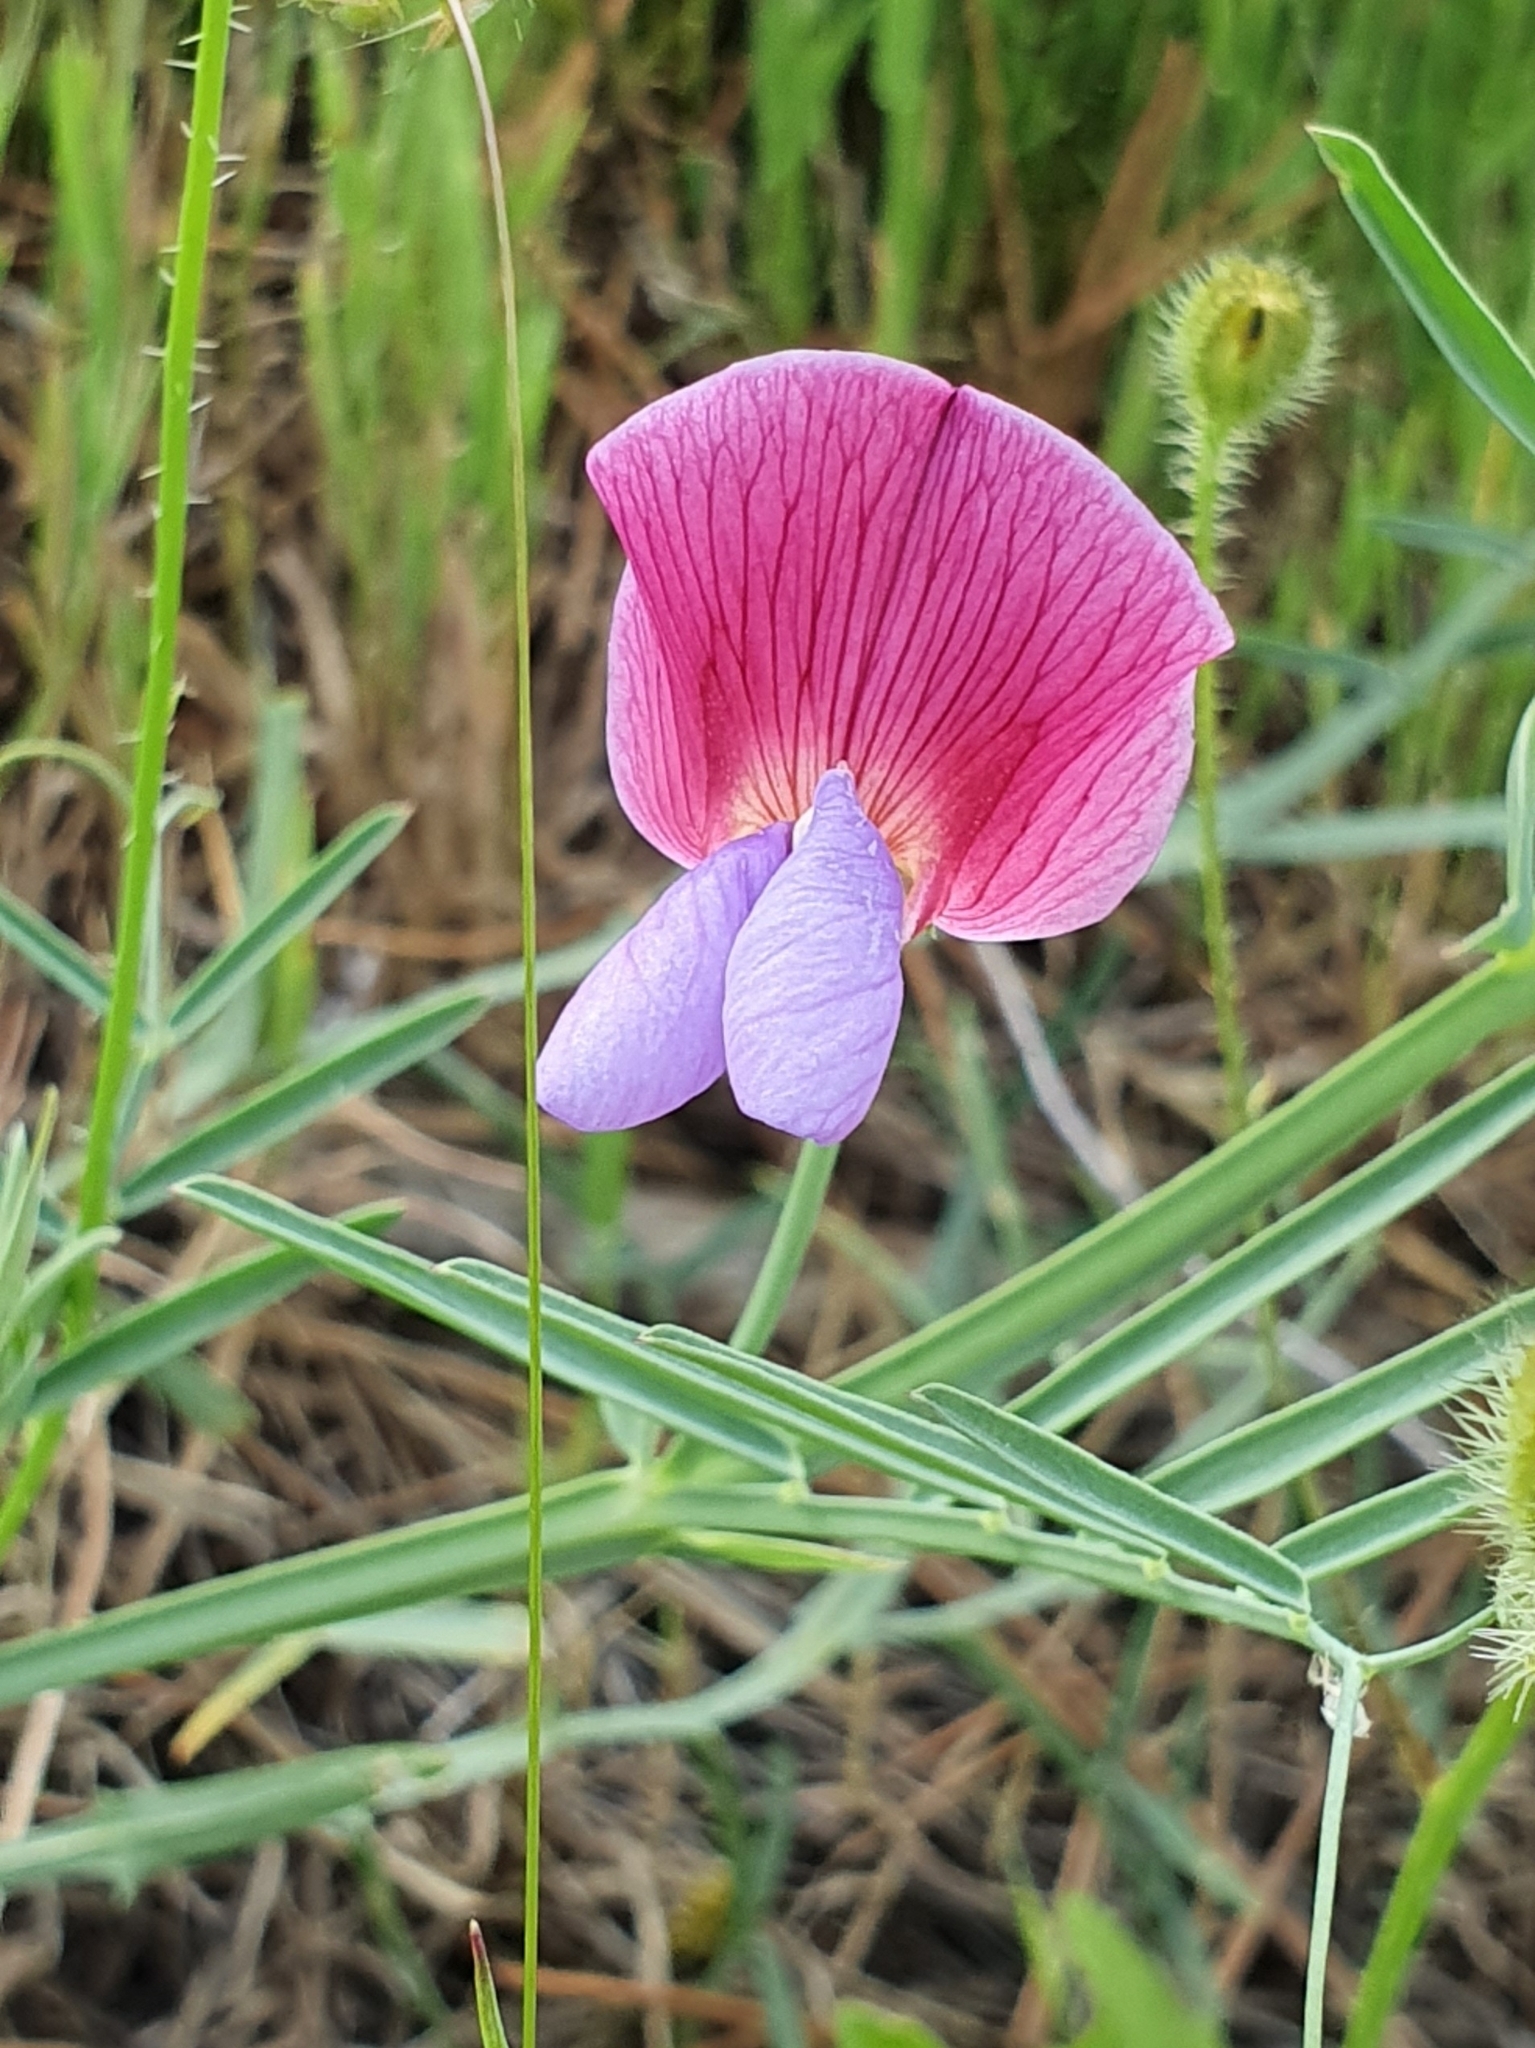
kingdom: Plantae
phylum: Tracheophyta
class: Magnoliopsida
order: Fabales
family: Fabaceae
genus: Lathyrus
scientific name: Lathyrus clymenum
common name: Spanish vetchling
